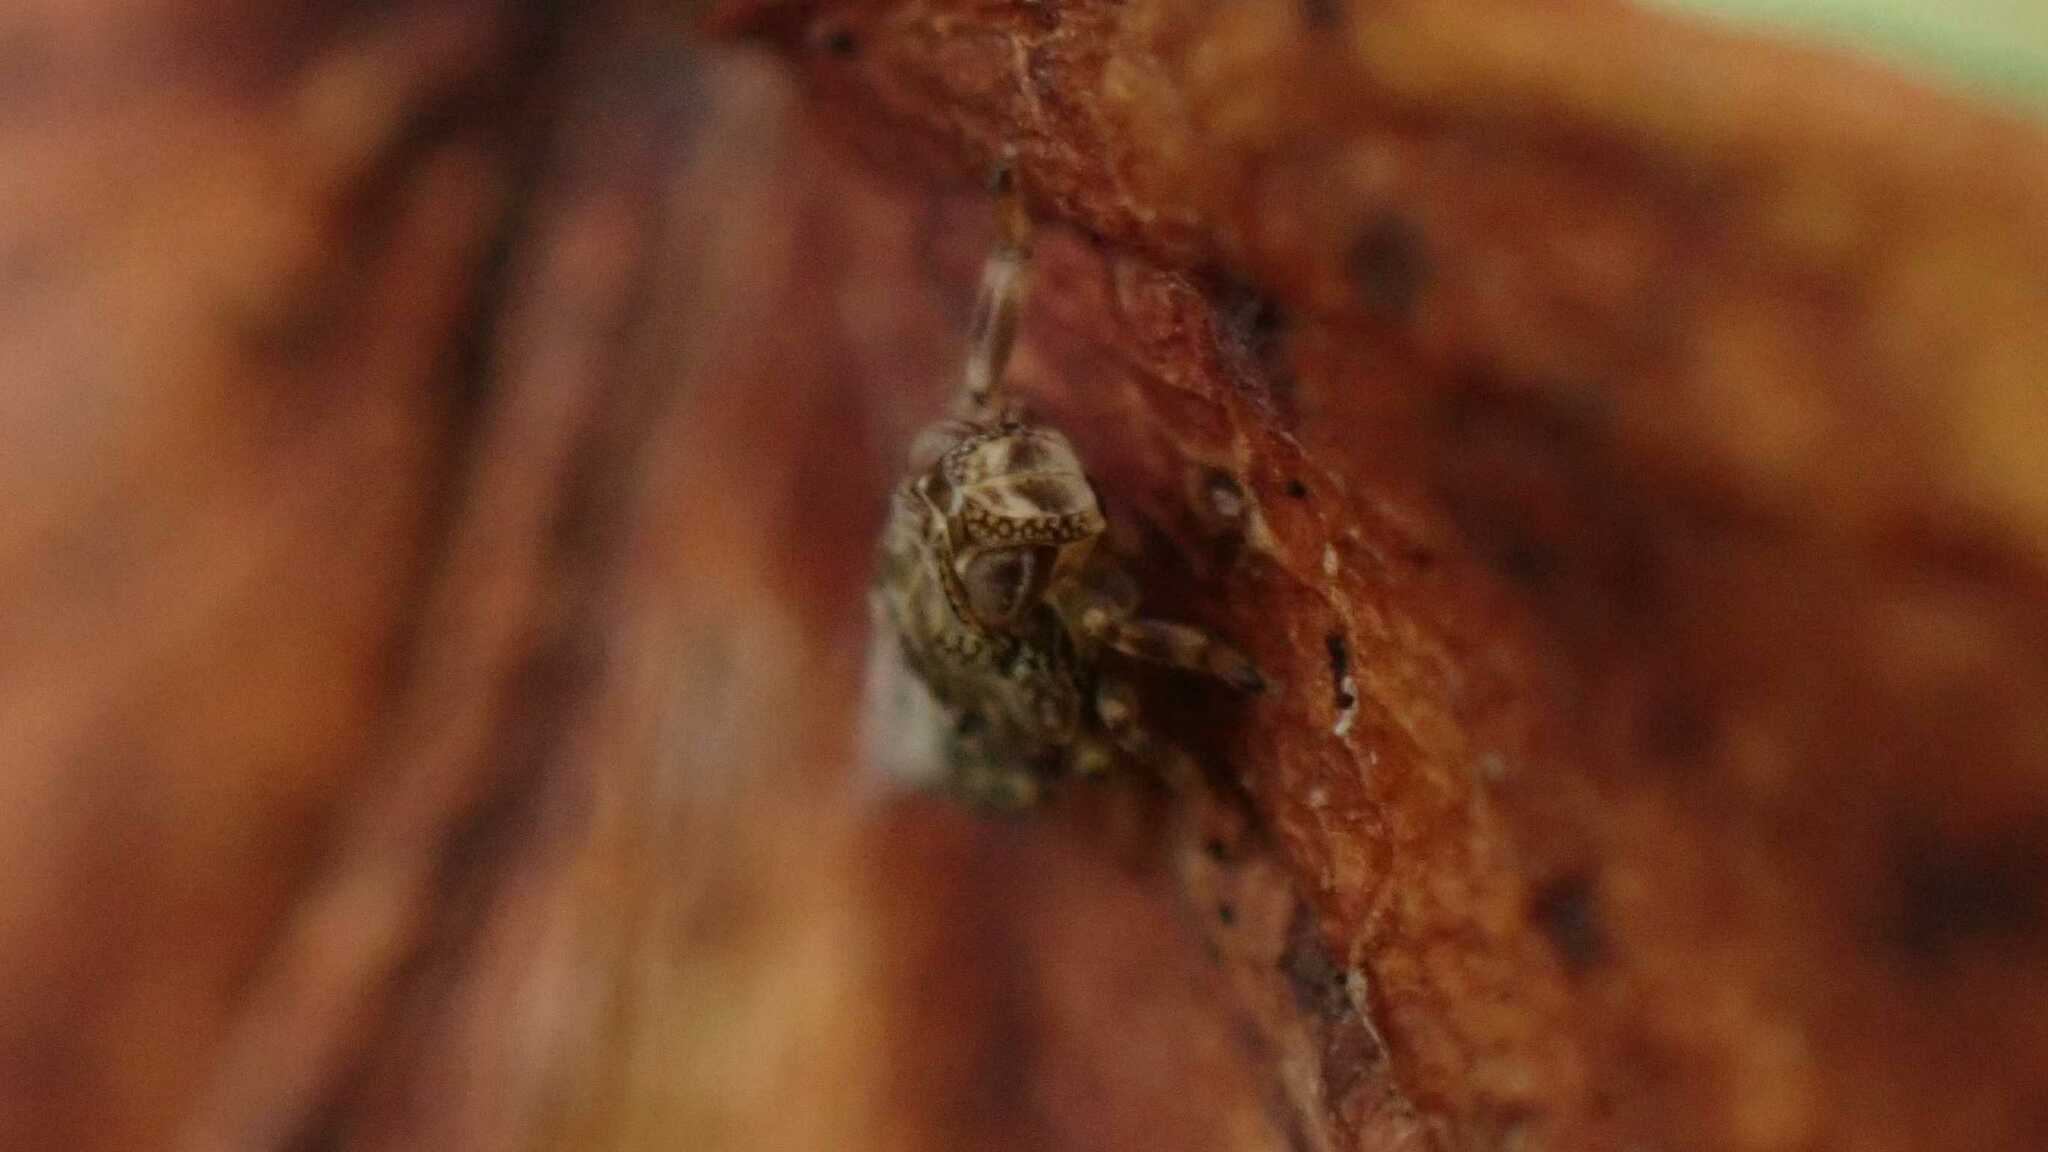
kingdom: Animalia
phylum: Arthropoda
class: Insecta
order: Hemiptera
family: Issidae
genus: Issus
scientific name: Issus coleoptratus
